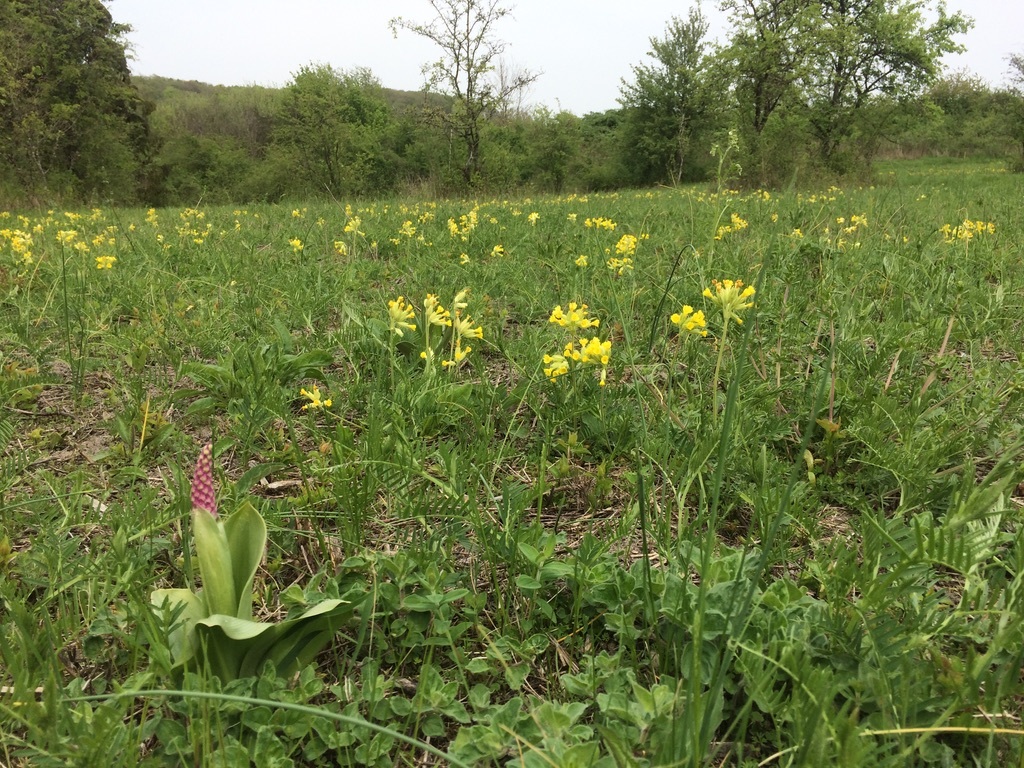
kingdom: Plantae
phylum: Tracheophyta
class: Magnoliopsida
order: Ericales
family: Primulaceae
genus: Primula
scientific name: Primula veris
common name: Cowslip
